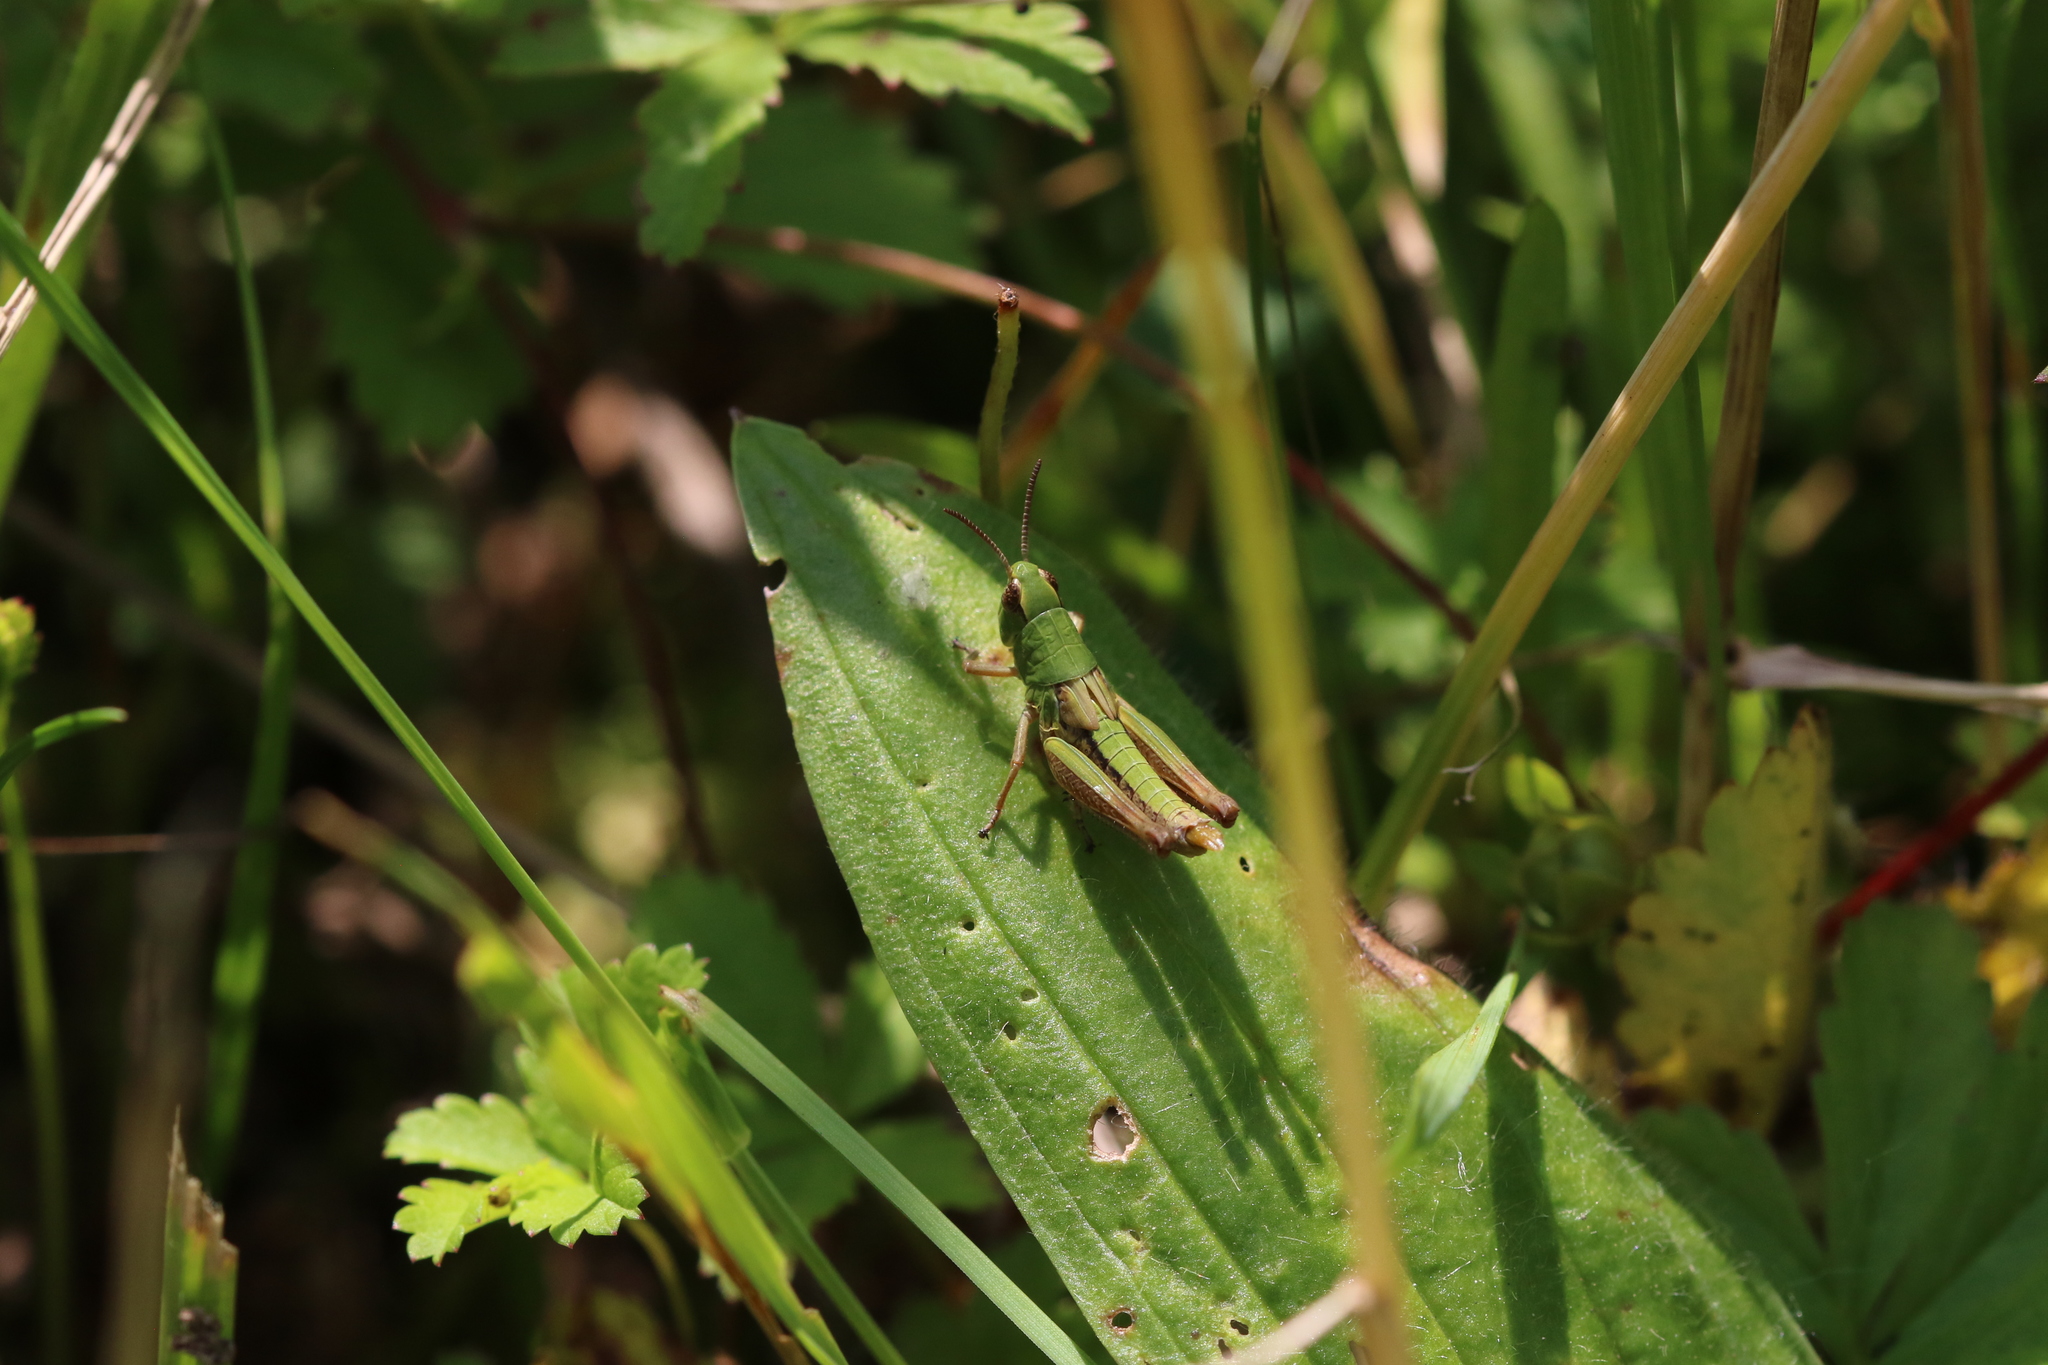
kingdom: Animalia
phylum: Arthropoda
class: Insecta
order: Orthoptera
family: Acrididae
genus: Pseudochorthippus
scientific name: Pseudochorthippus parallelus
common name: Meadow grasshopper
